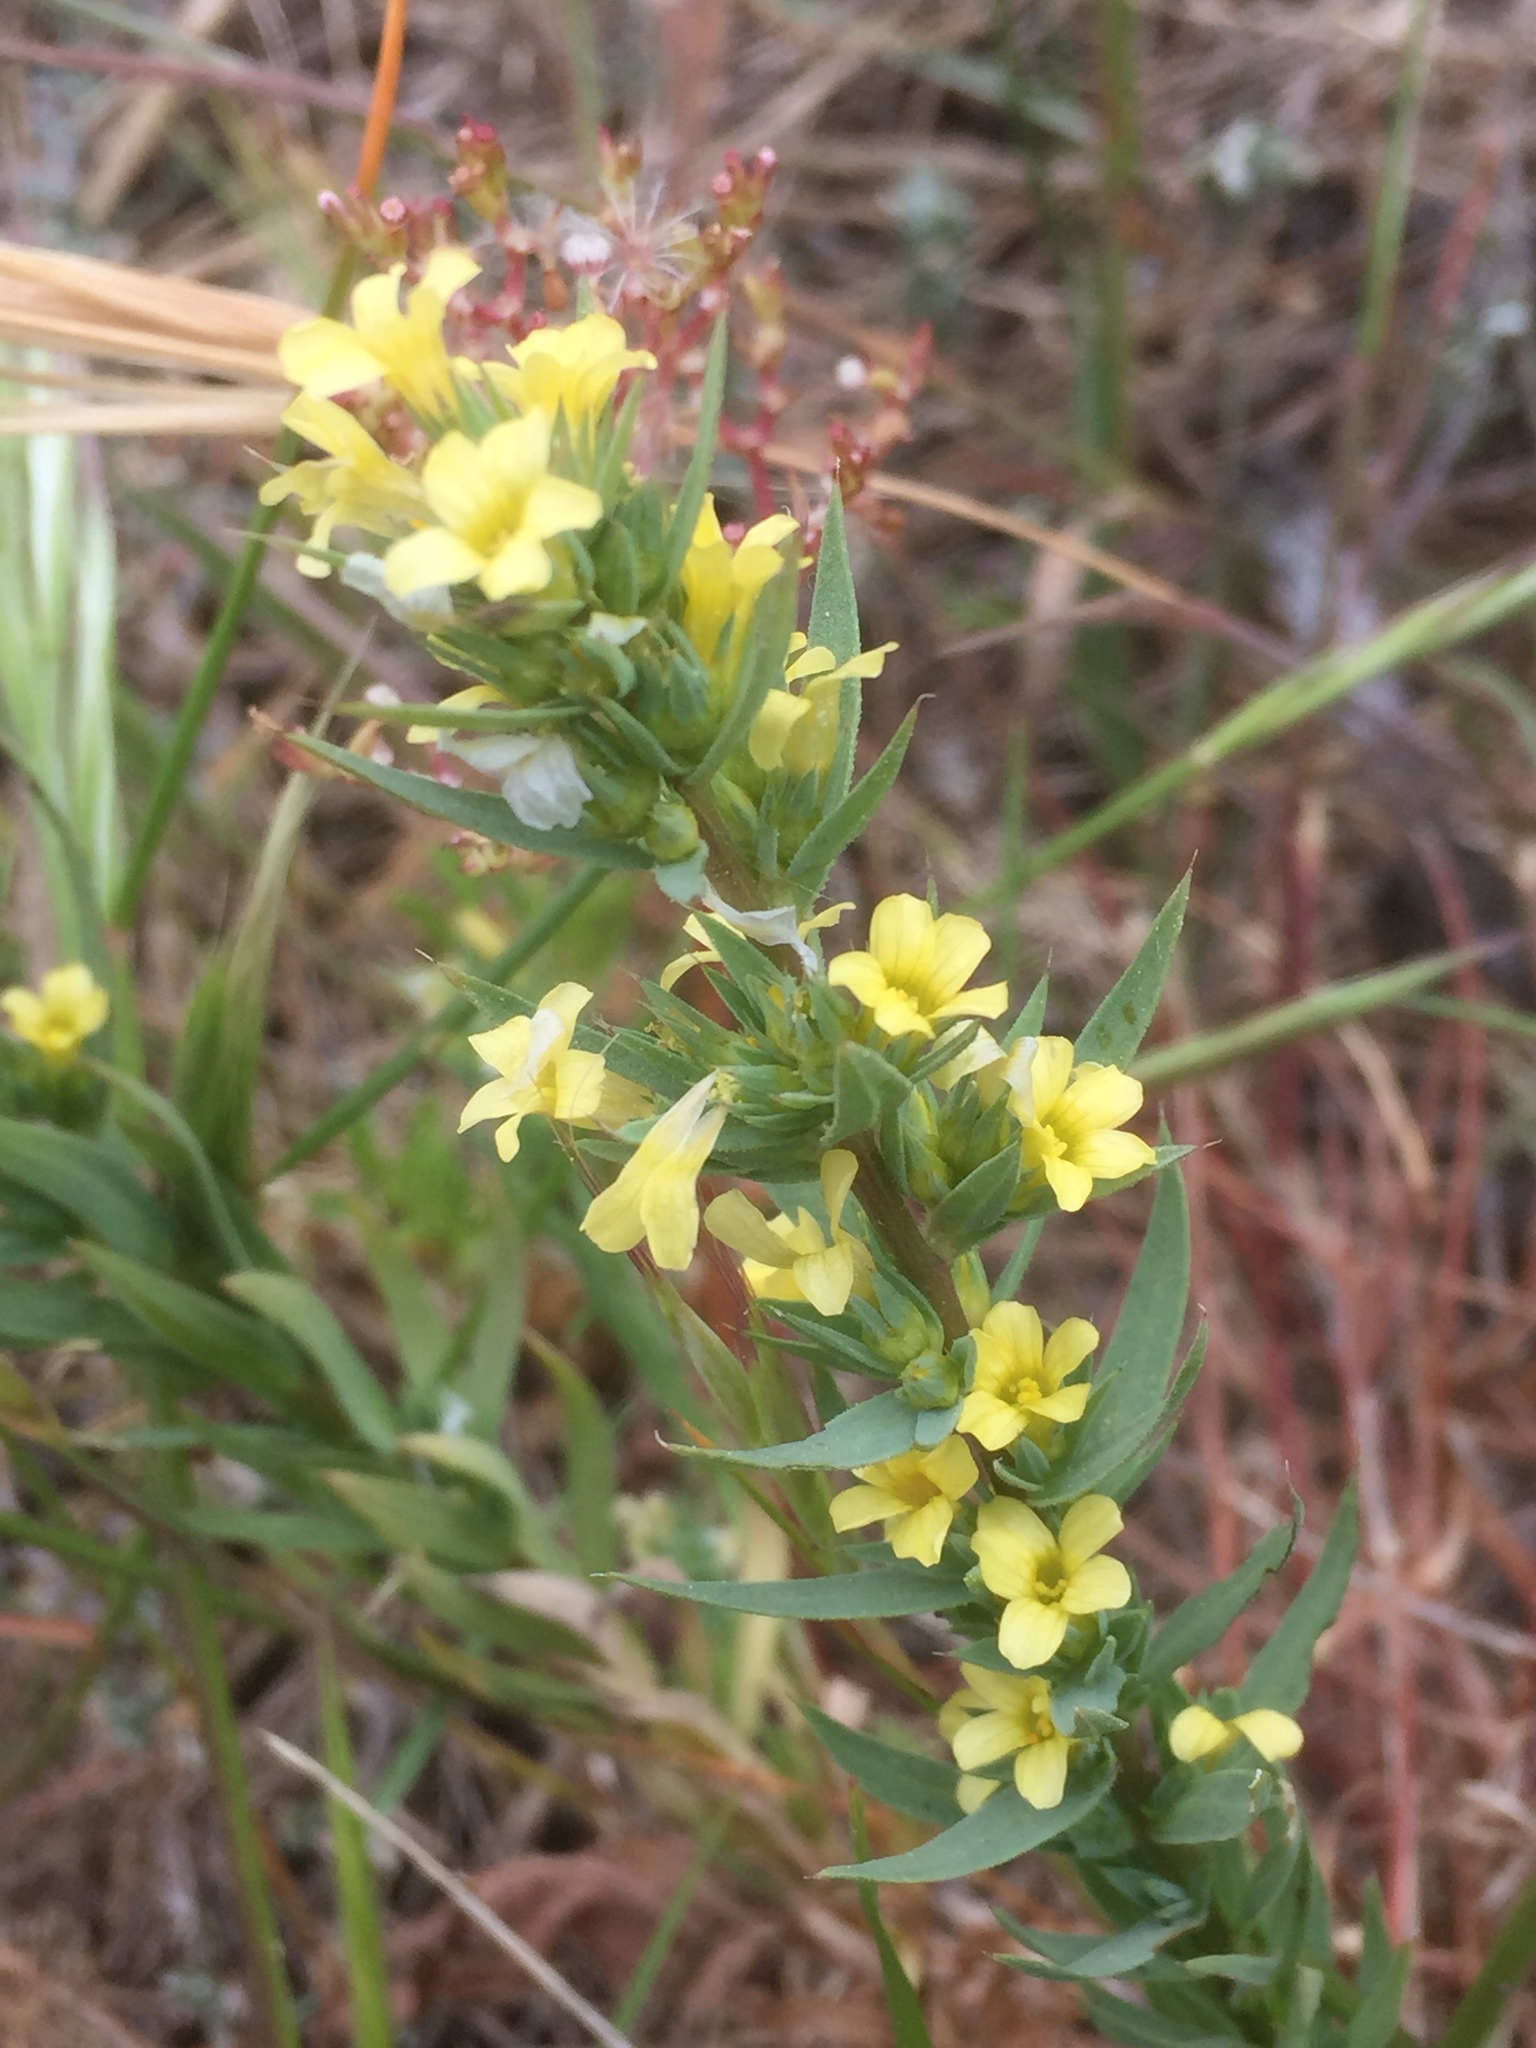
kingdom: Plantae
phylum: Tracheophyta
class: Magnoliopsida
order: Malpighiales
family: Linaceae
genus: Linum
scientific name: Linum strictum
